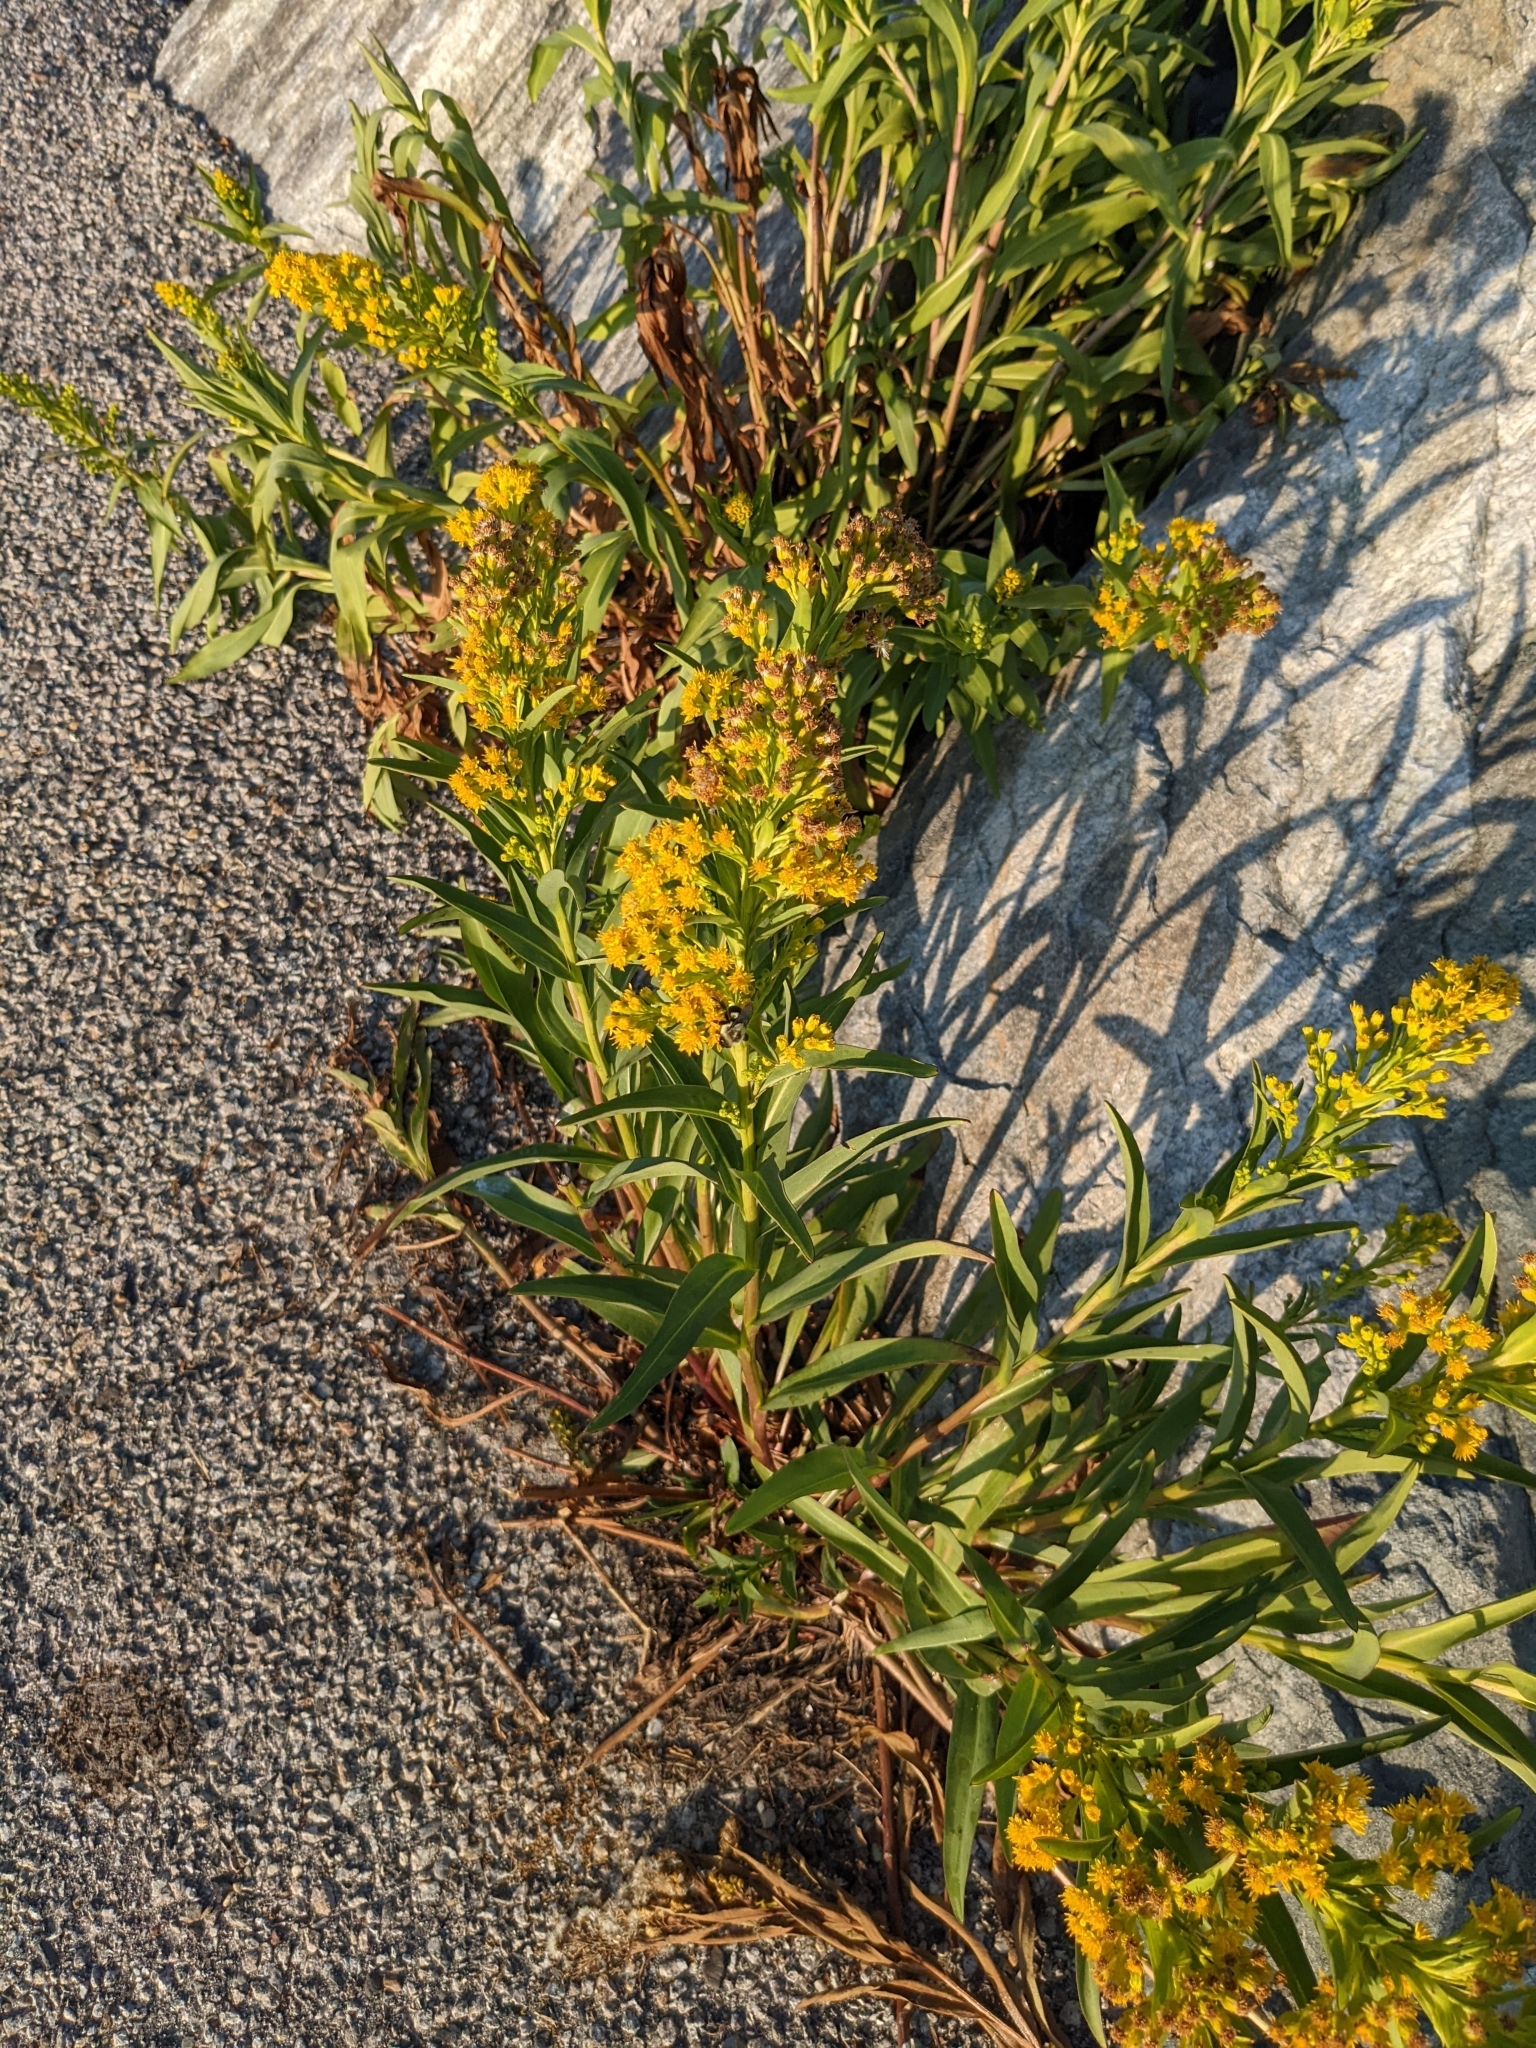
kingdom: Plantae
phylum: Tracheophyta
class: Magnoliopsida
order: Asterales
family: Asteraceae
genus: Solidago
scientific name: Solidago sempervirens
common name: Salt-marsh goldenrod
